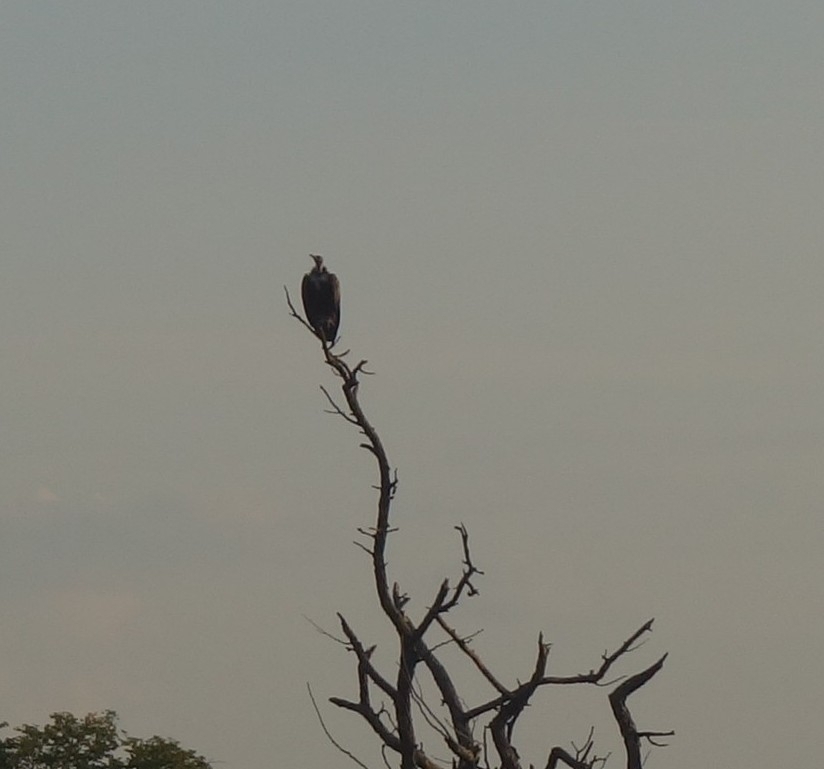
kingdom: Animalia
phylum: Chordata
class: Aves
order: Accipitriformes
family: Accipitridae
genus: Necrosyrtes
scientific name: Necrosyrtes monachus
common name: Hooded vulture
